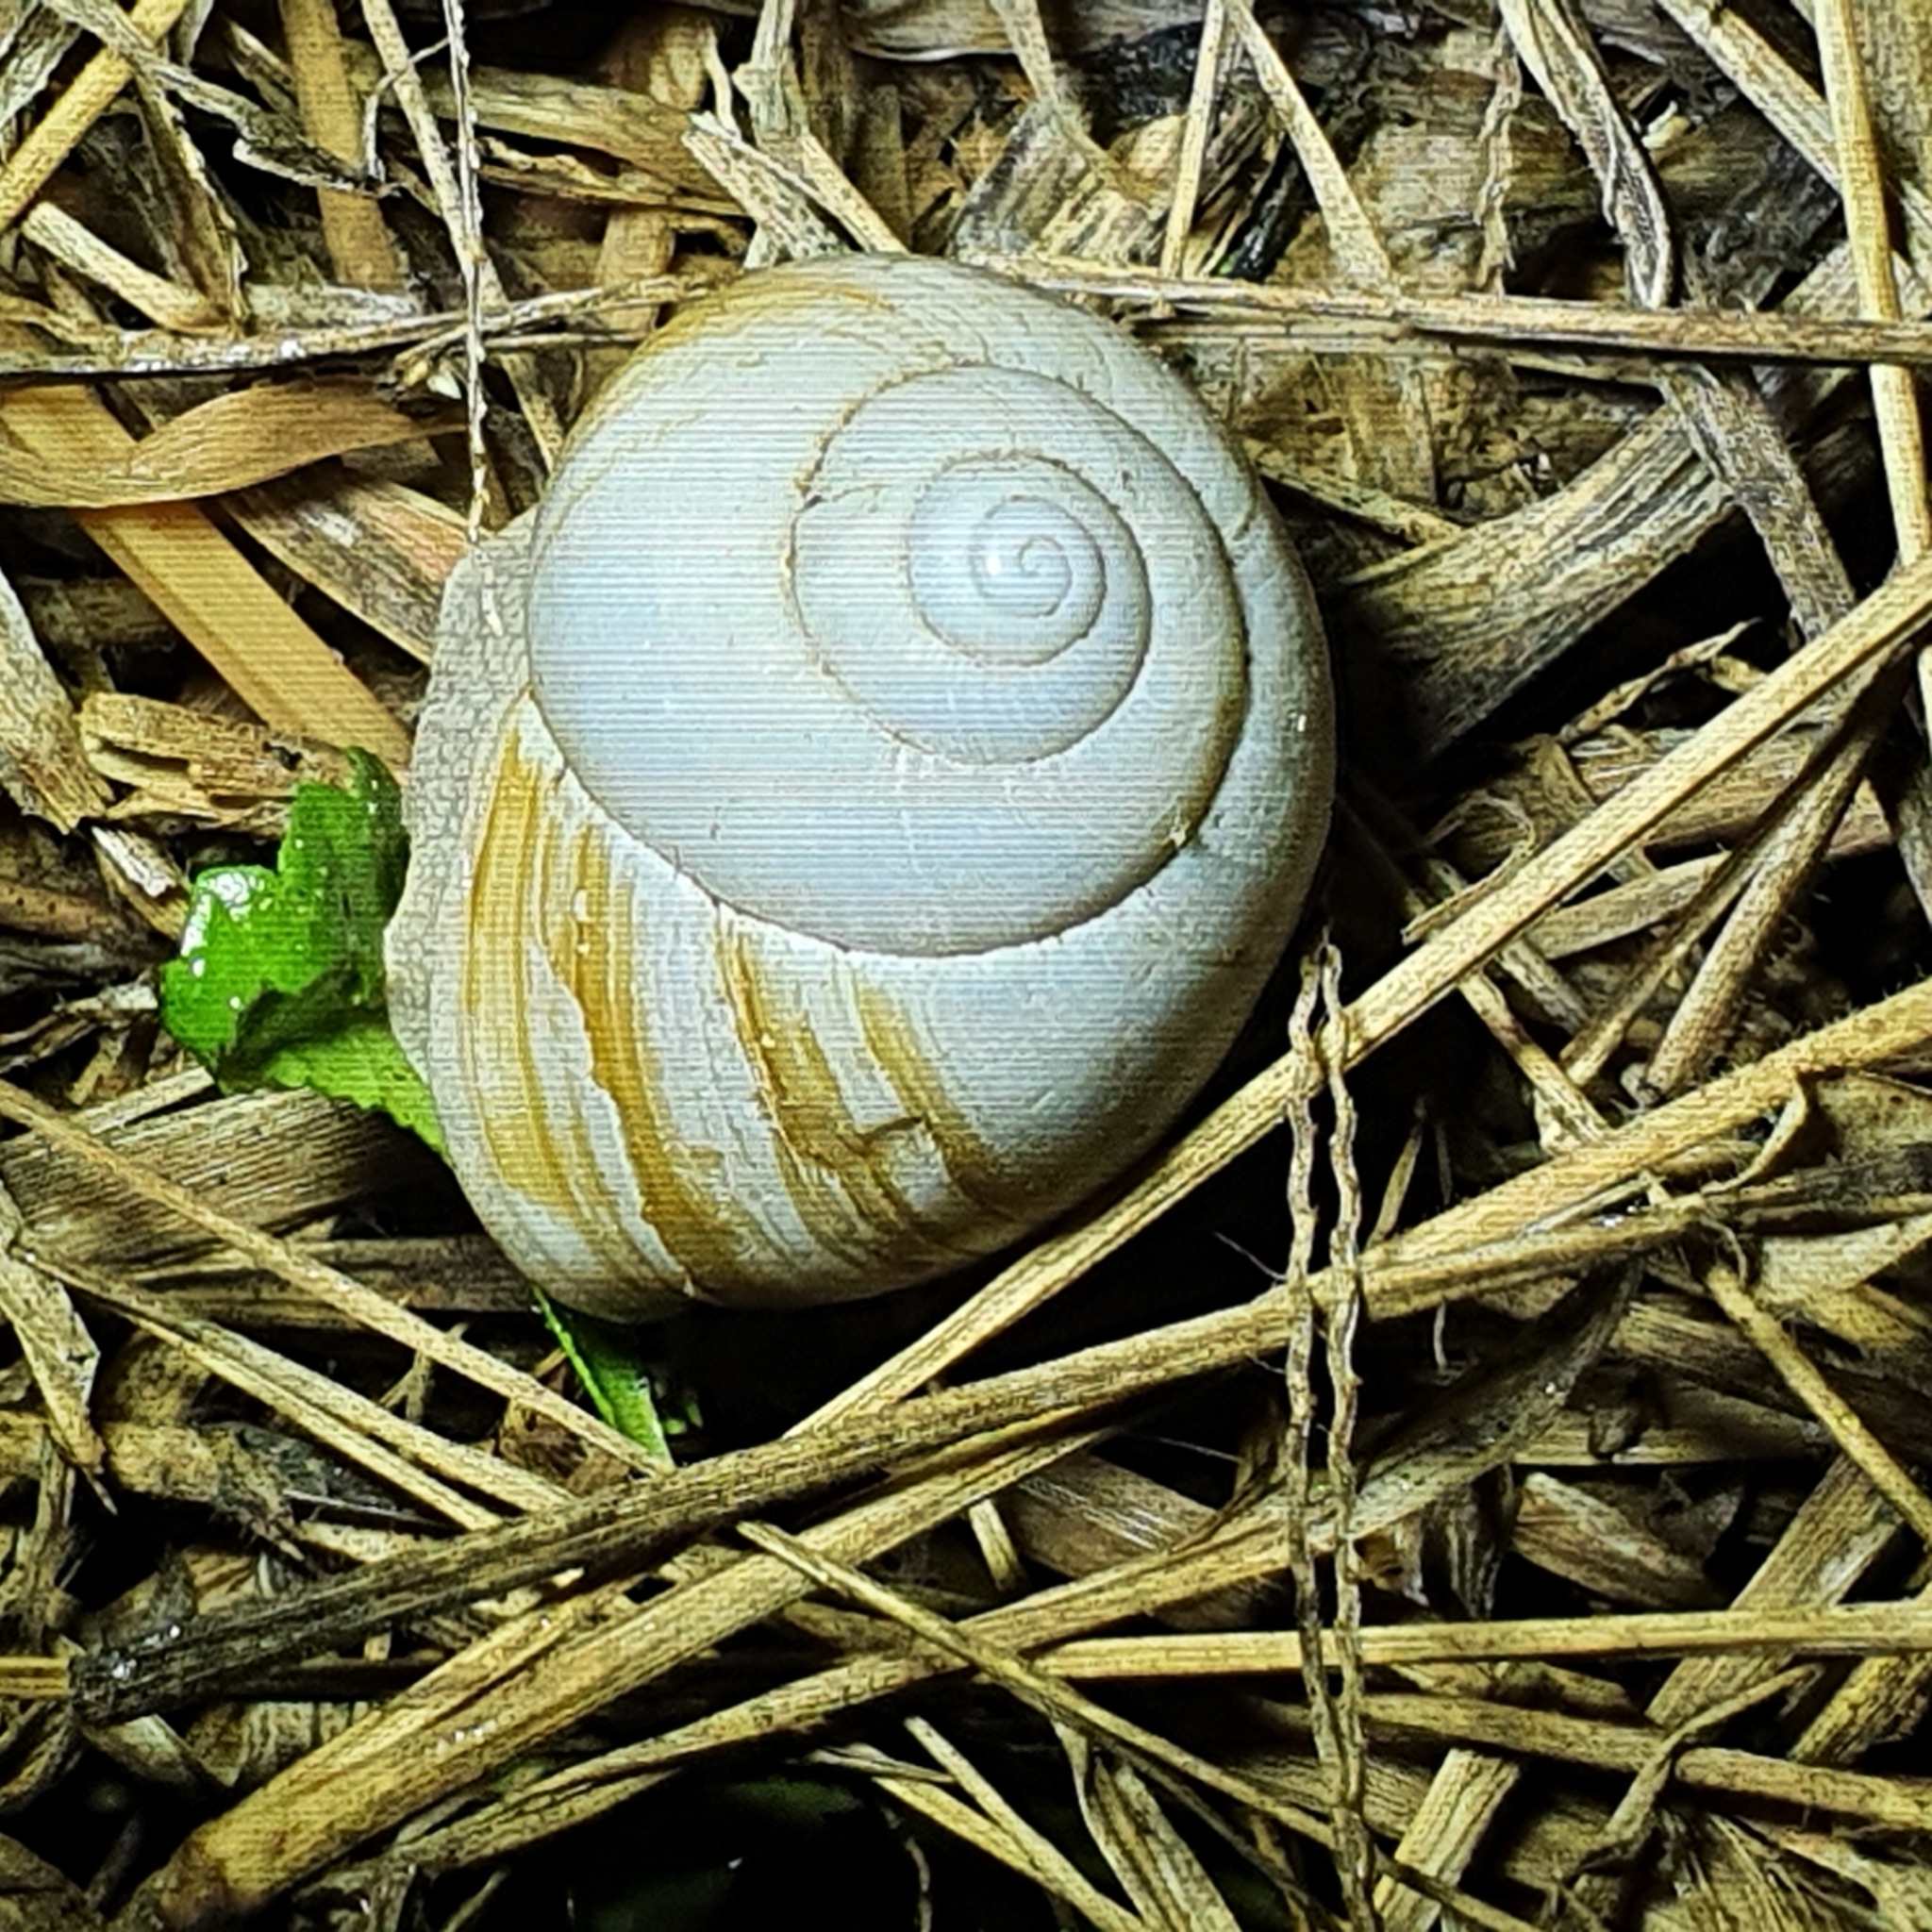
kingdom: Animalia
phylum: Mollusca
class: Gastropoda
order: Stylommatophora
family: Camaenidae
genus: Xanthomelon
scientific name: Xanthomelon pachystylum
